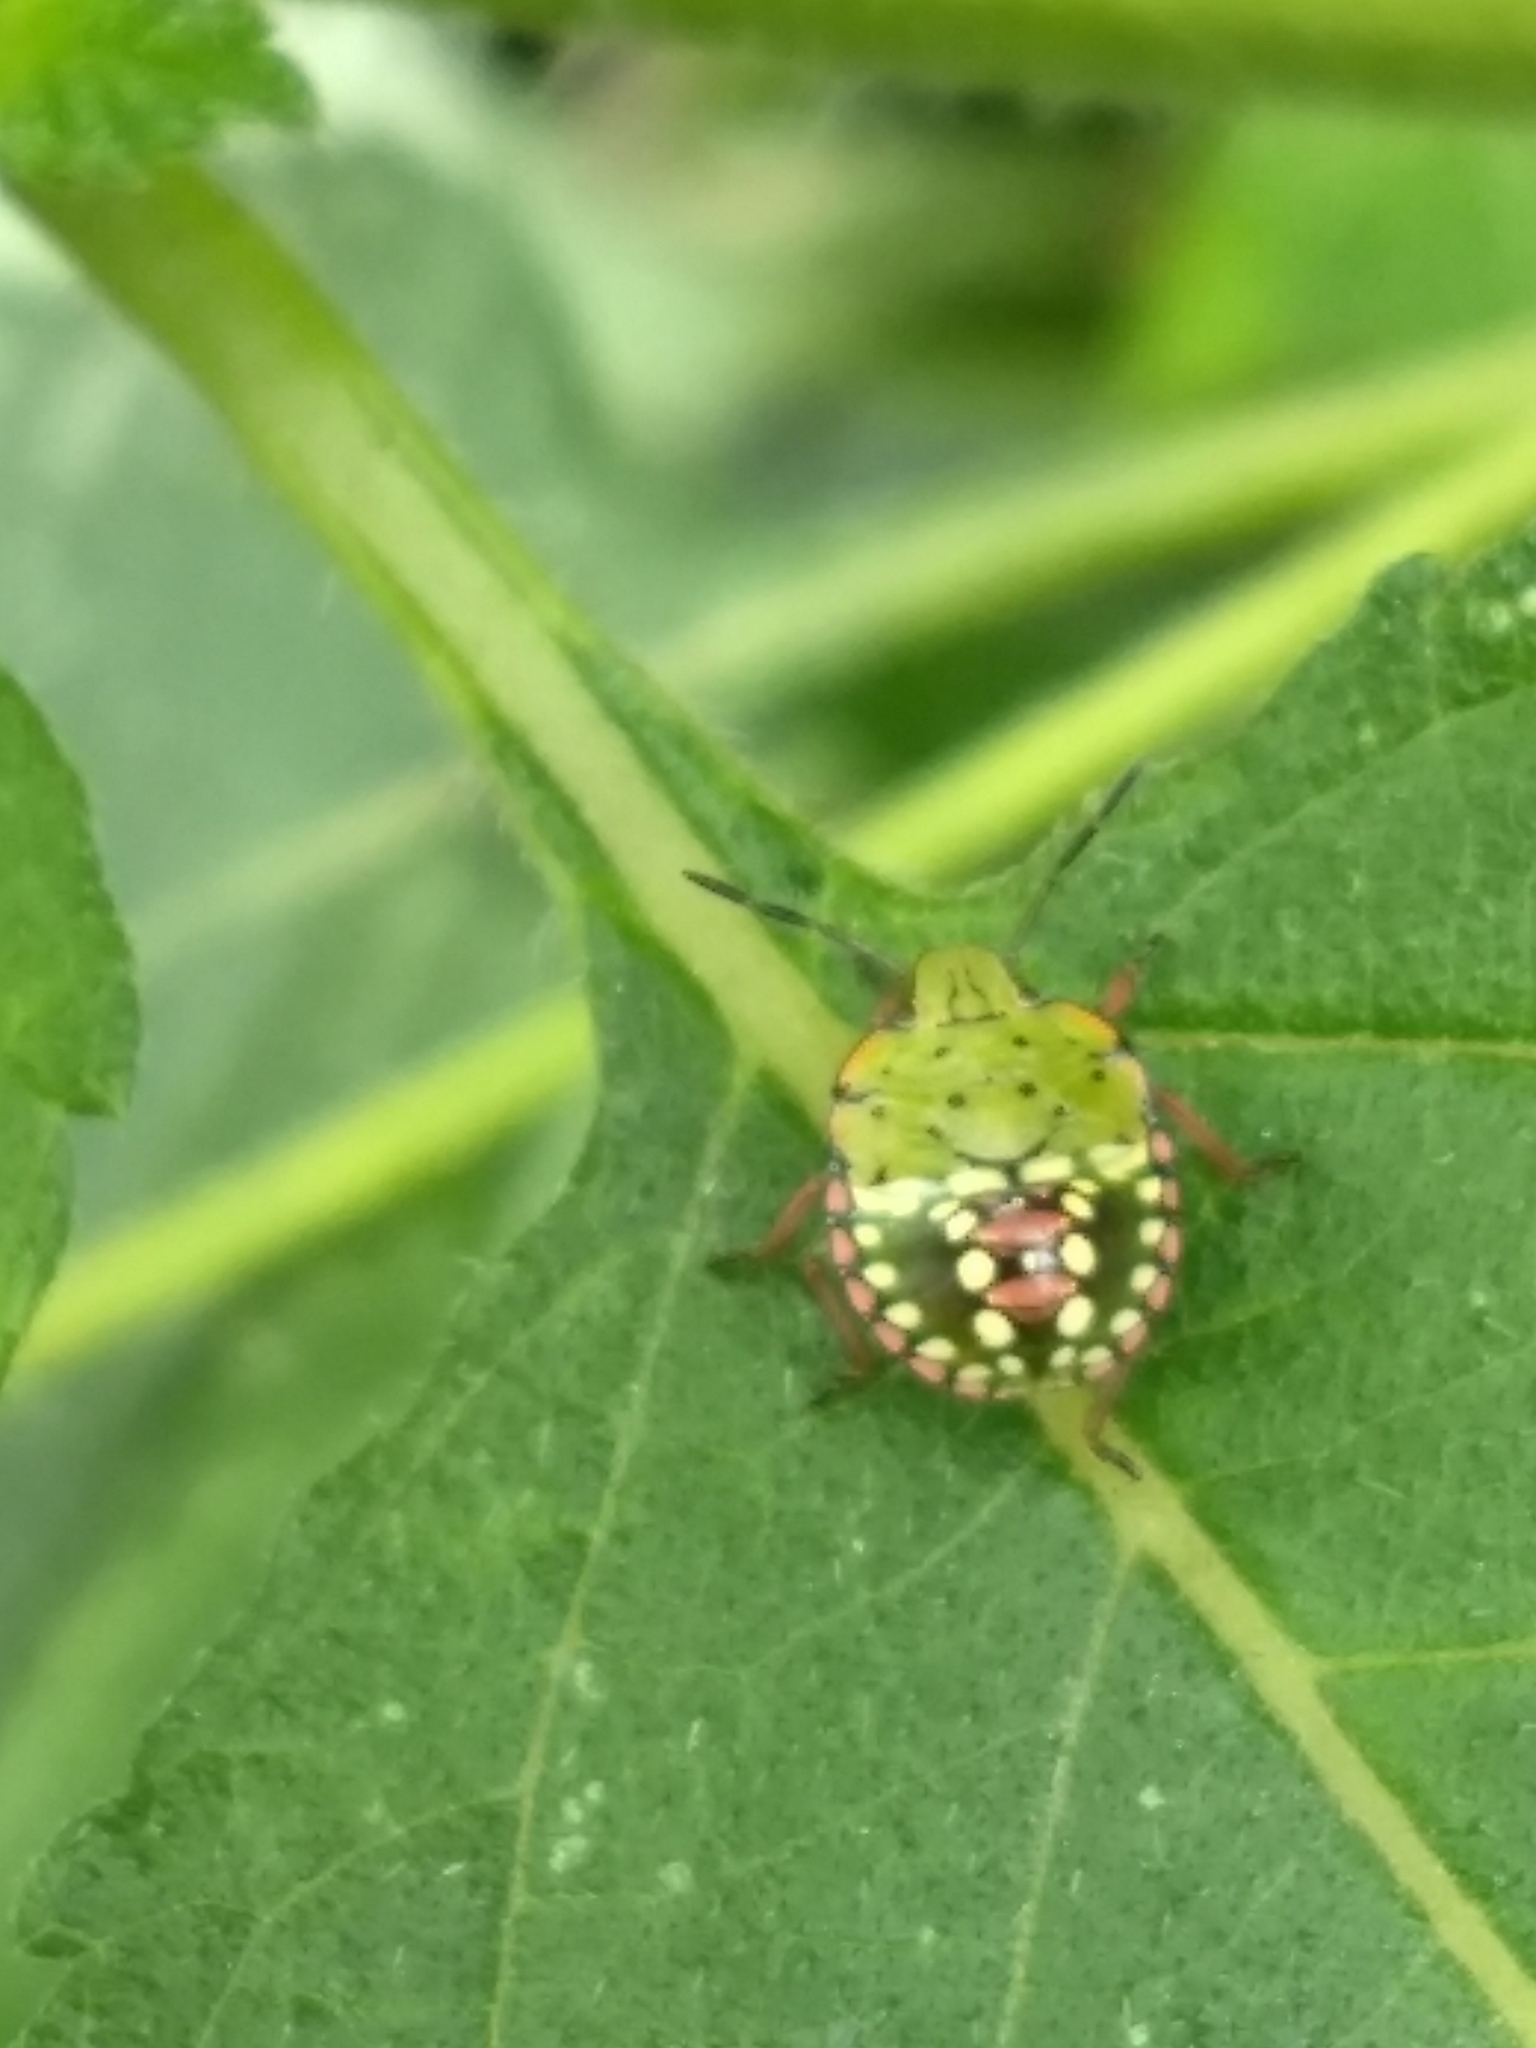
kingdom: Animalia
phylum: Arthropoda
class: Insecta
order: Hemiptera
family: Pentatomidae
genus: Nezara
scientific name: Nezara viridula
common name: Southern green stink bug
